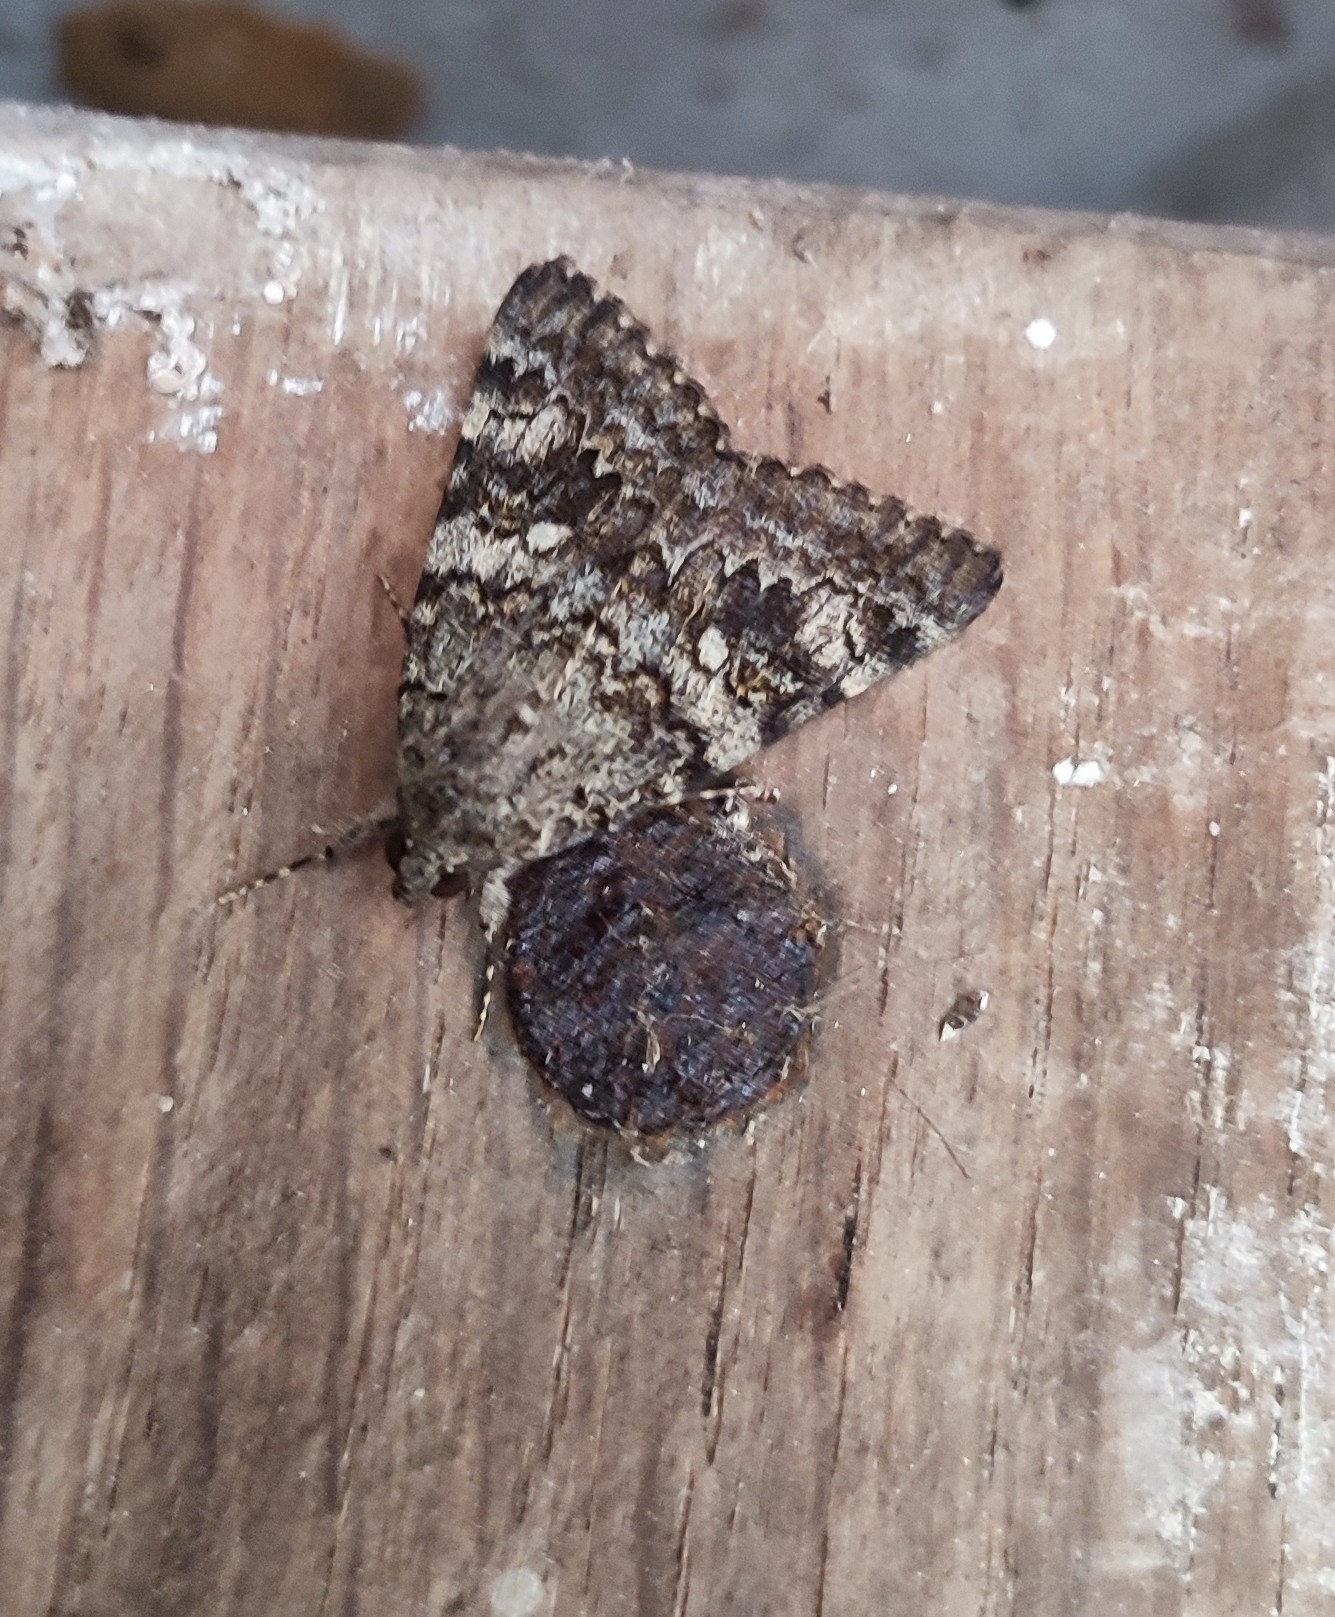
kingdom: Animalia
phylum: Arthropoda
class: Insecta
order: Lepidoptera
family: Erebidae
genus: Catocala
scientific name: Catocala nymphaea
